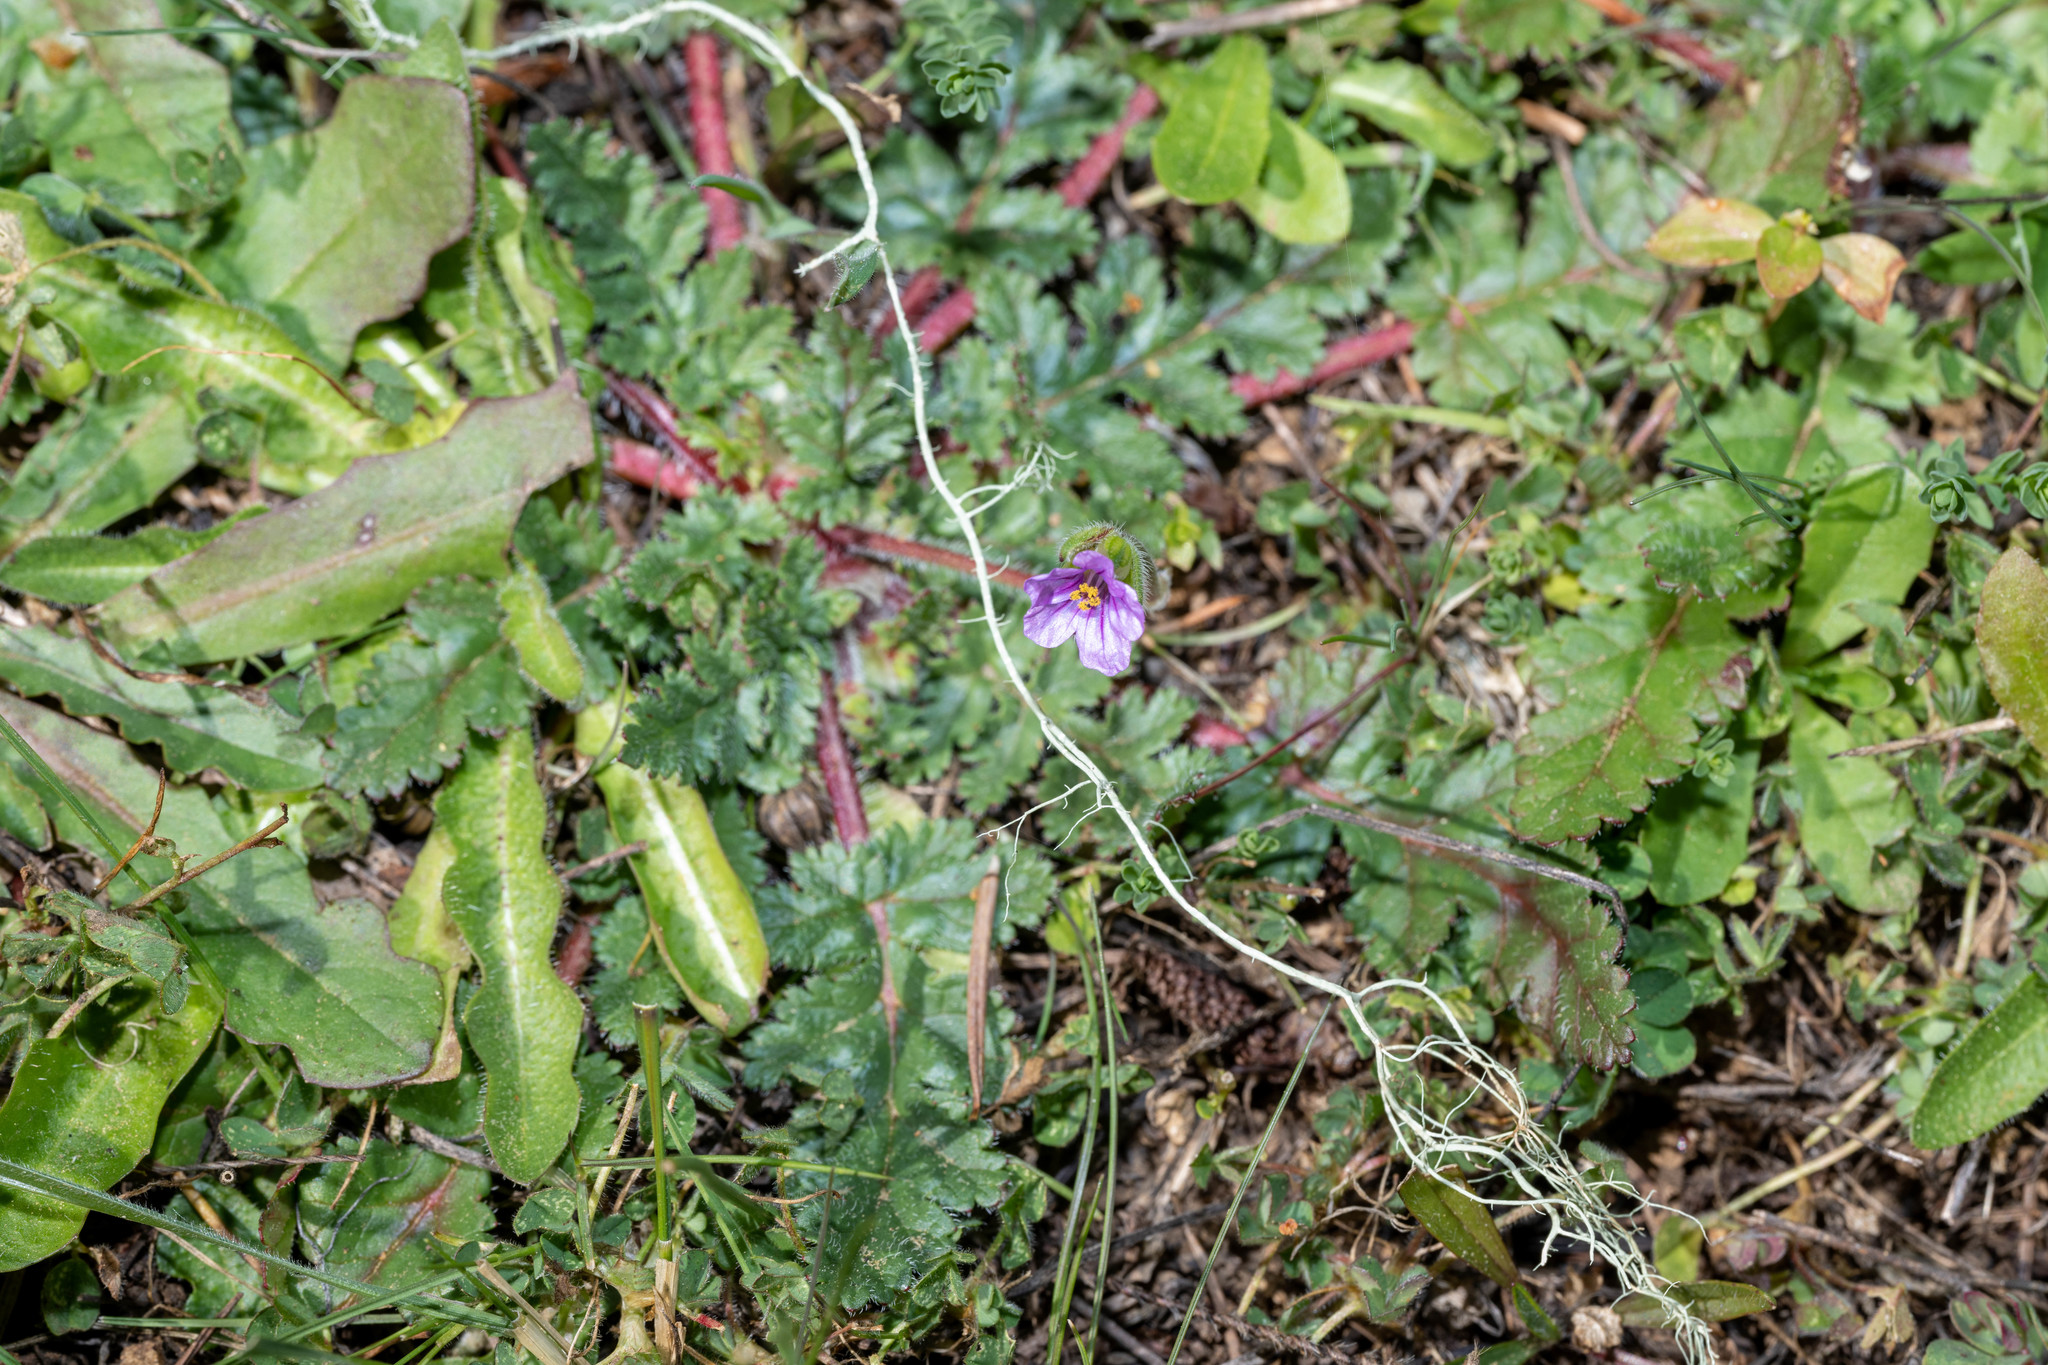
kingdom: Plantae
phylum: Tracheophyta
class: Magnoliopsida
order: Geraniales
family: Geraniaceae
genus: Erodium
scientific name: Erodium botrys
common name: Mediterranean stork's-bill
